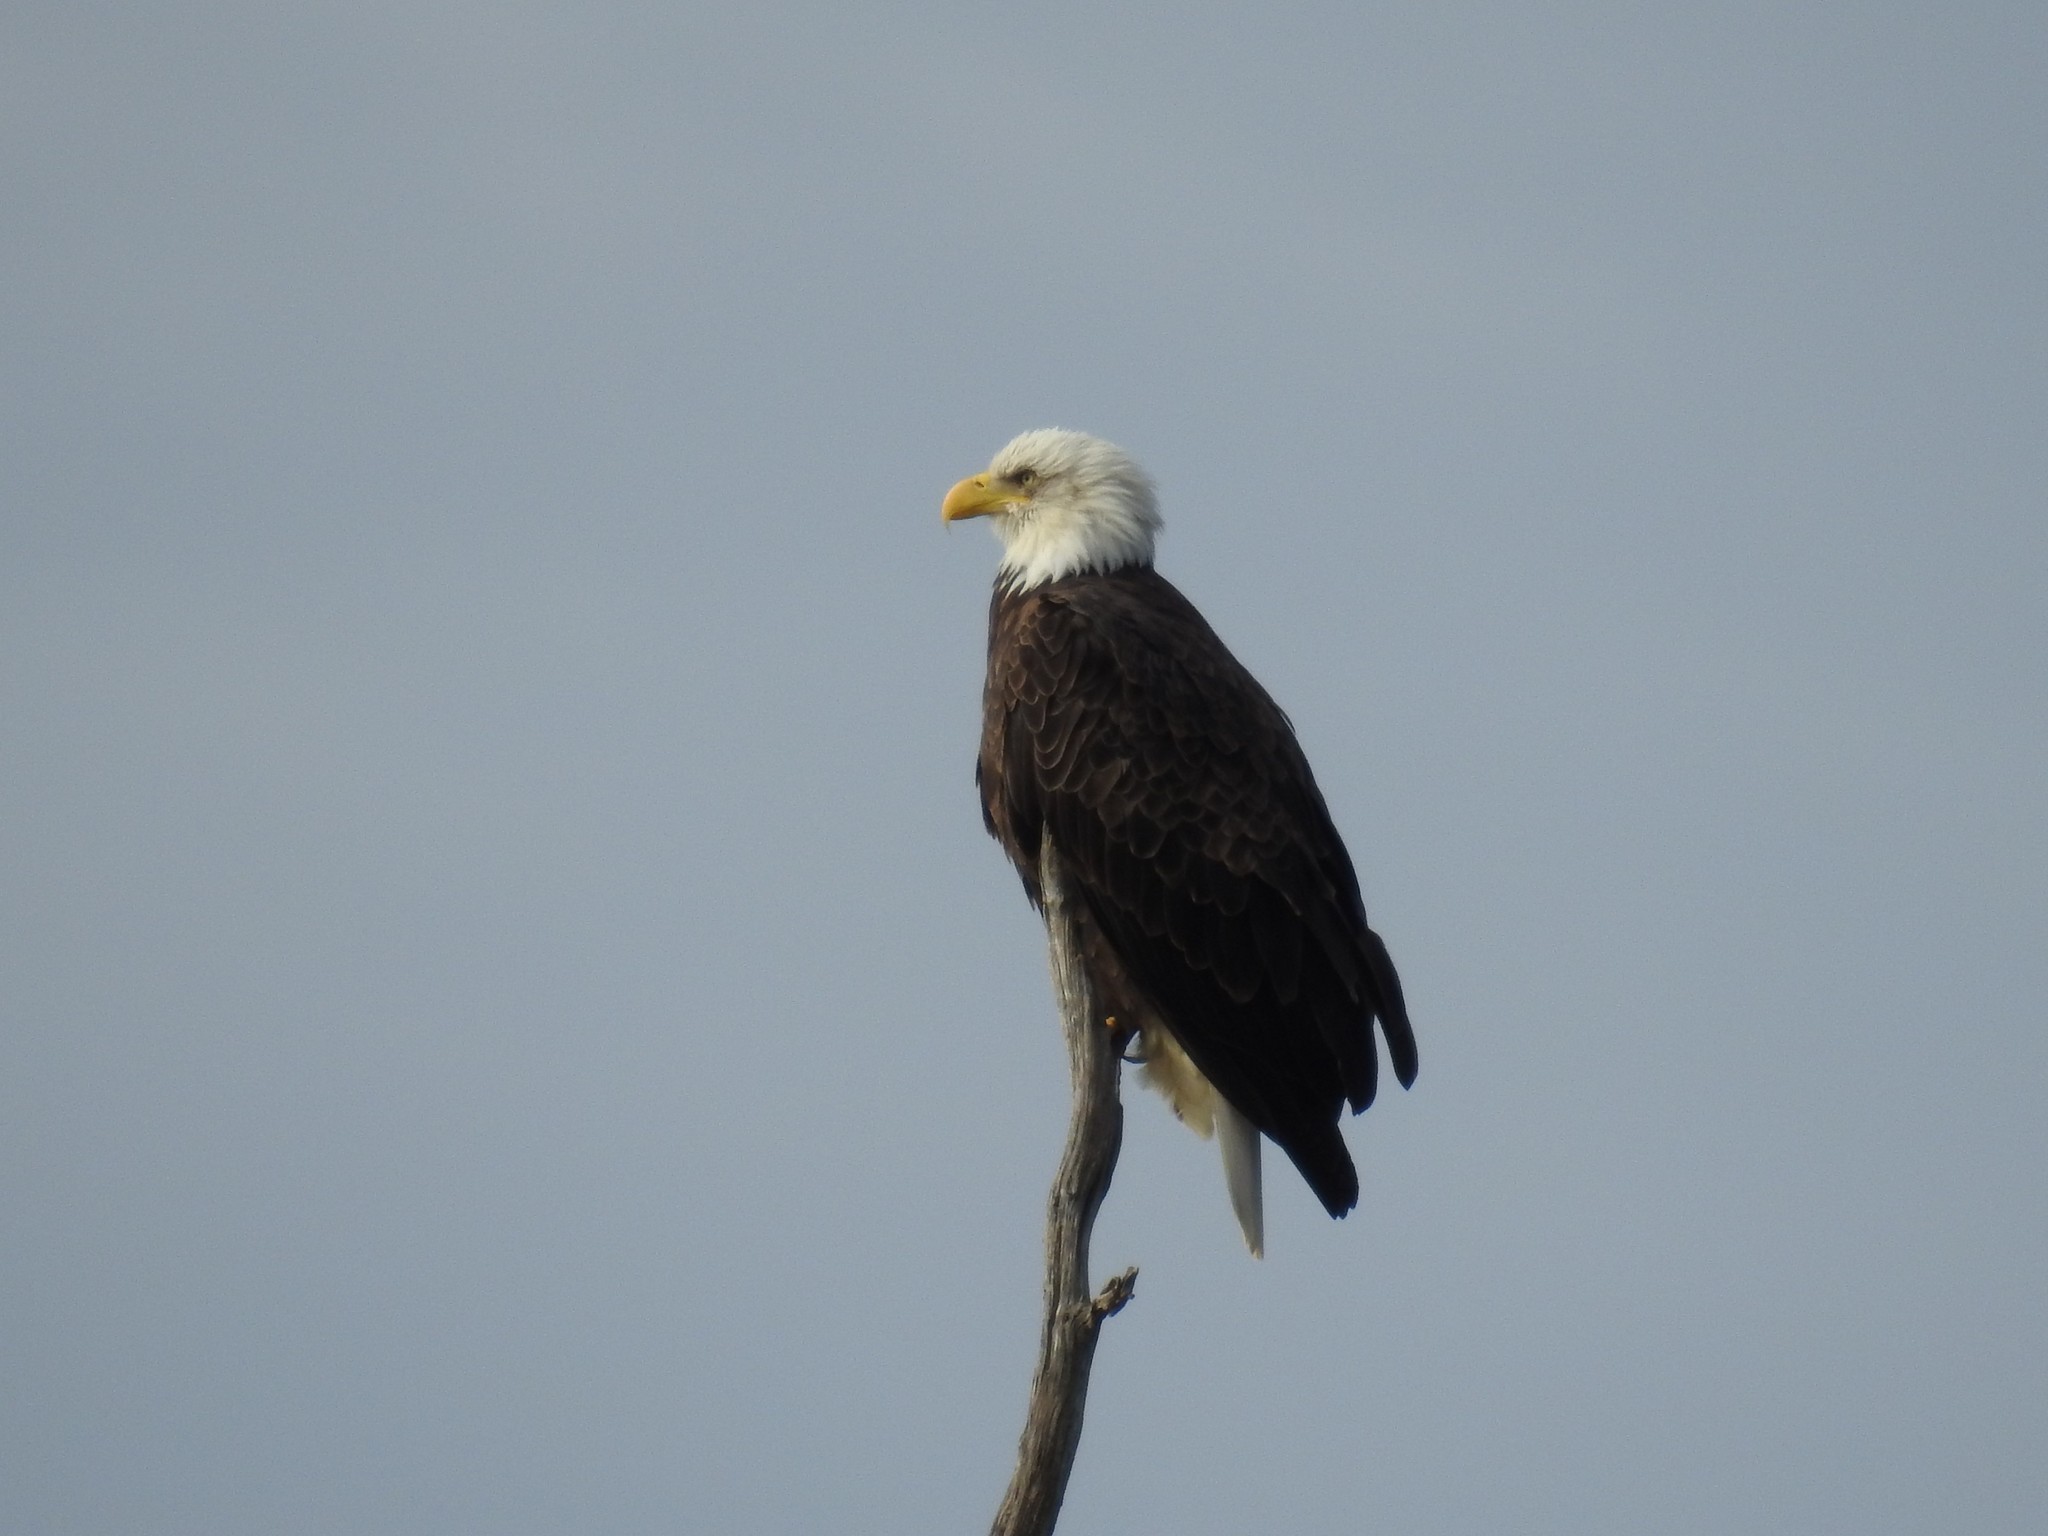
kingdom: Animalia
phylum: Chordata
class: Aves
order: Accipitriformes
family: Accipitridae
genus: Haliaeetus
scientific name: Haliaeetus leucocephalus
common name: Bald eagle
